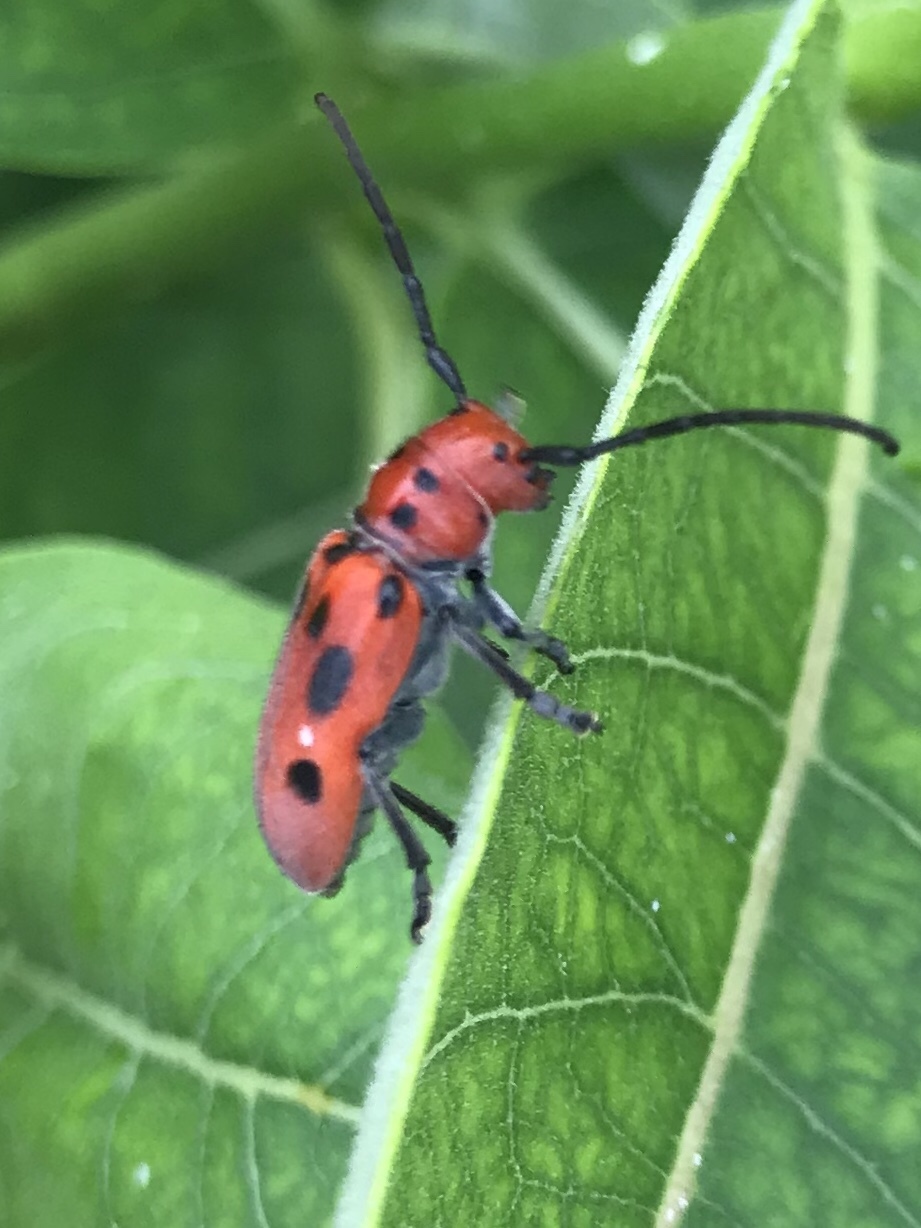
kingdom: Animalia
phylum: Arthropoda
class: Insecta
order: Coleoptera
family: Cerambycidae
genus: Tetraopes
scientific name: Tetraopes tetrophthalmus
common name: Red milkweed beetle
